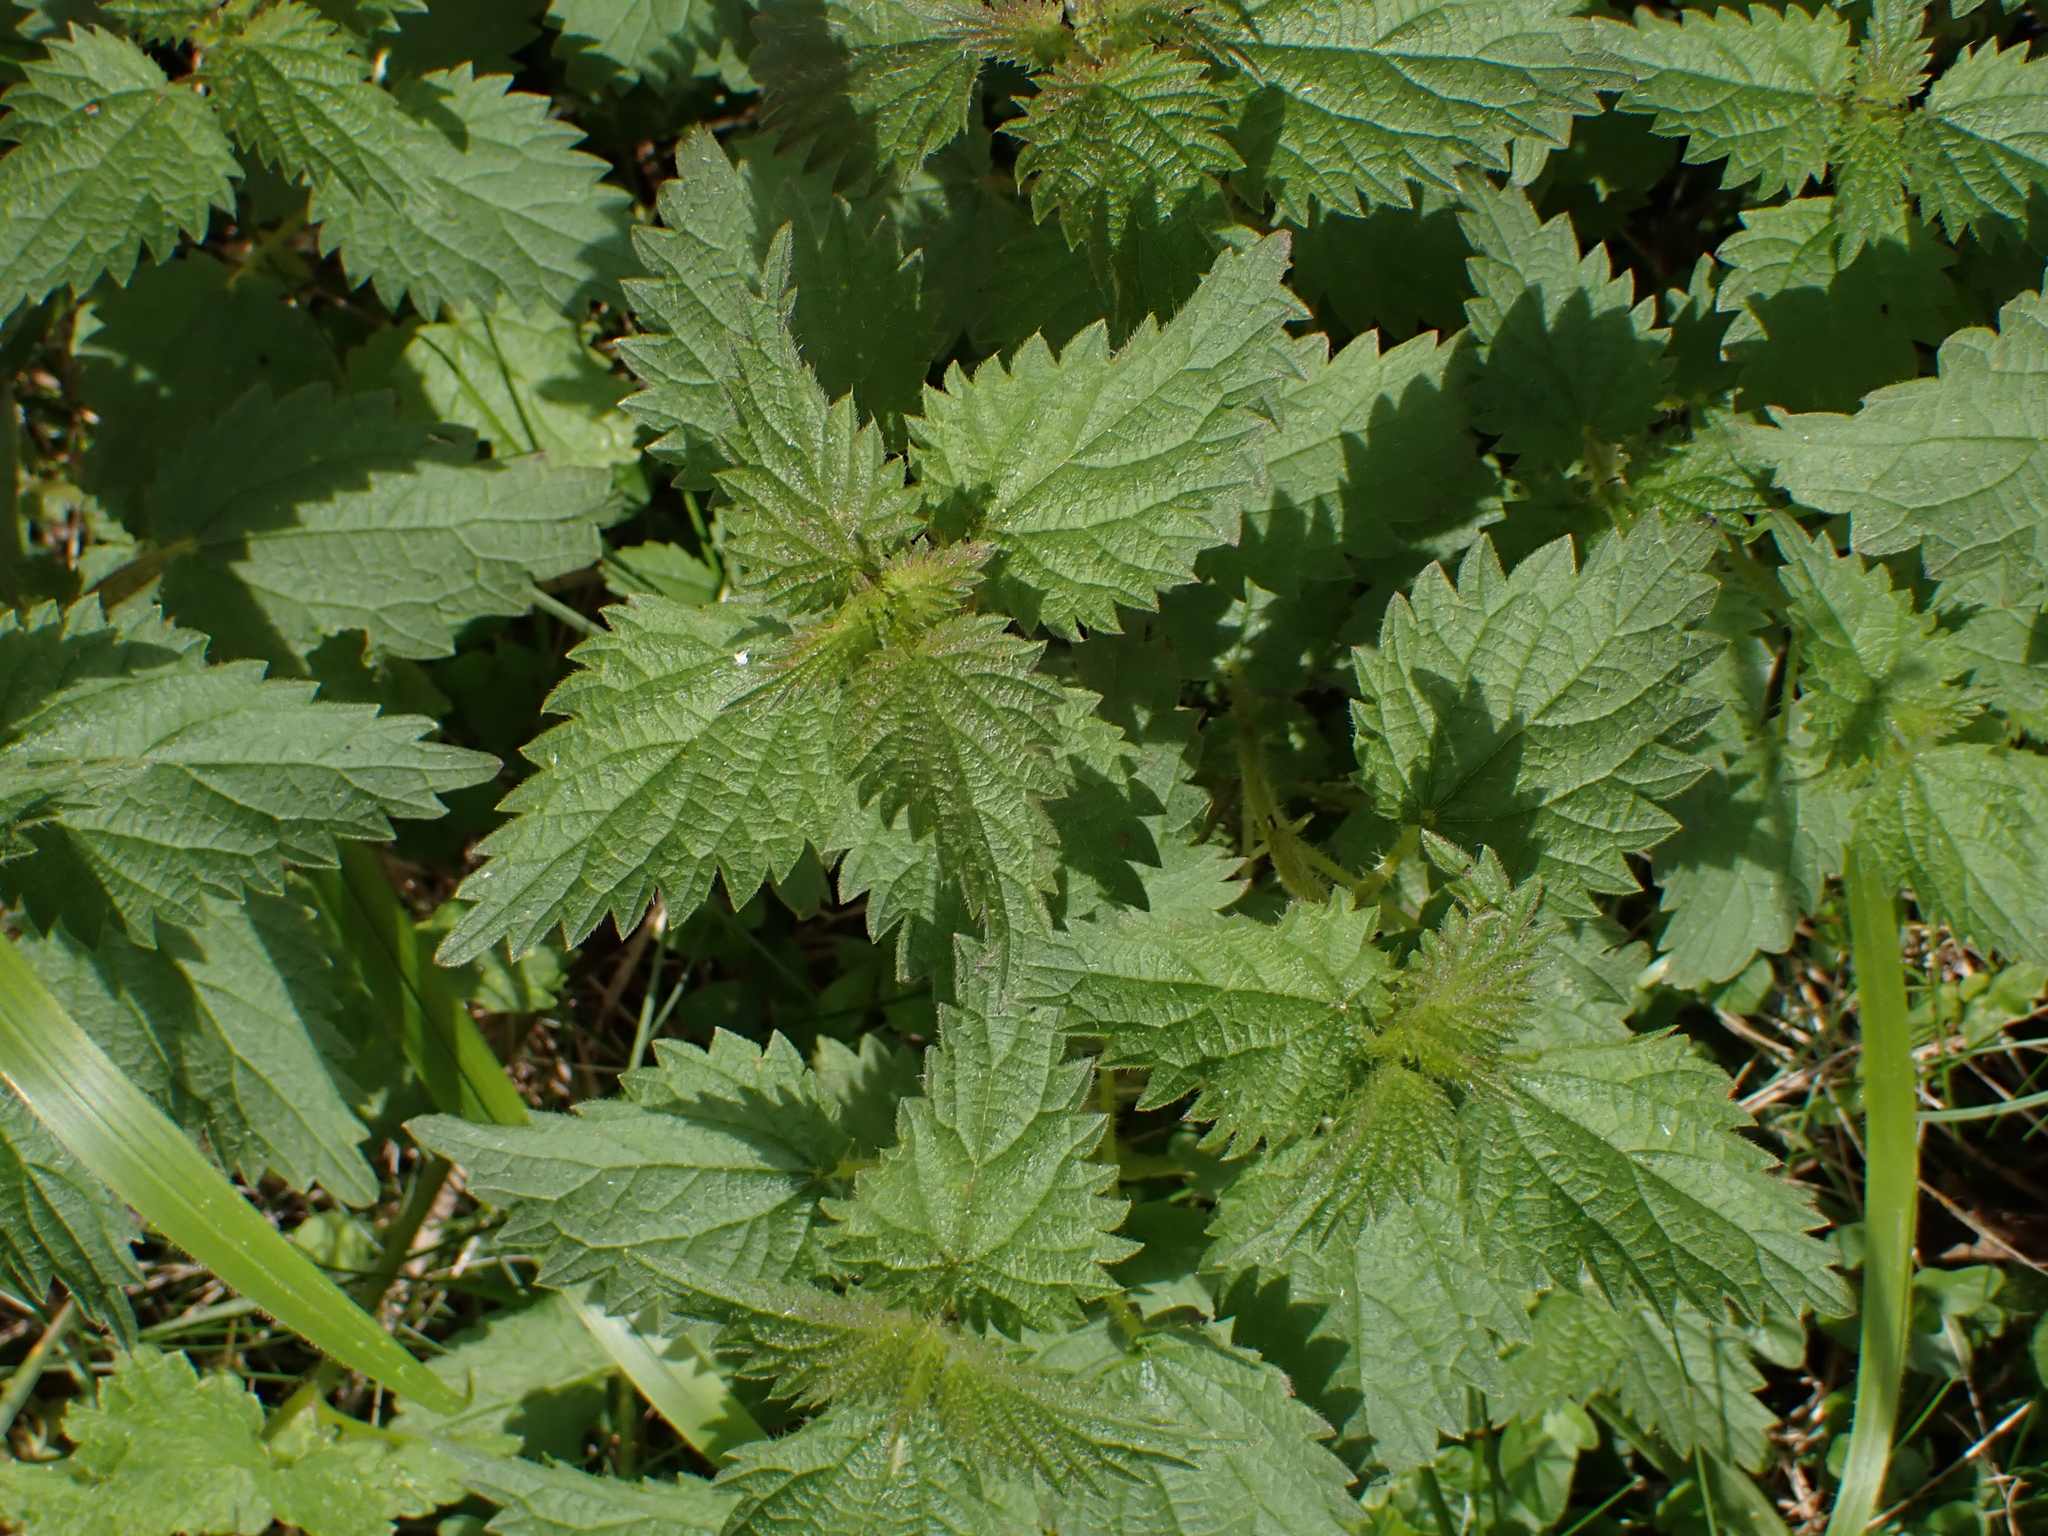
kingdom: Plantae
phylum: Tracheophyta
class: Magnoliopsida
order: Rosales
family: Urticaceae
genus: Urtica
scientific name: Urtica dioica
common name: Common nettle
